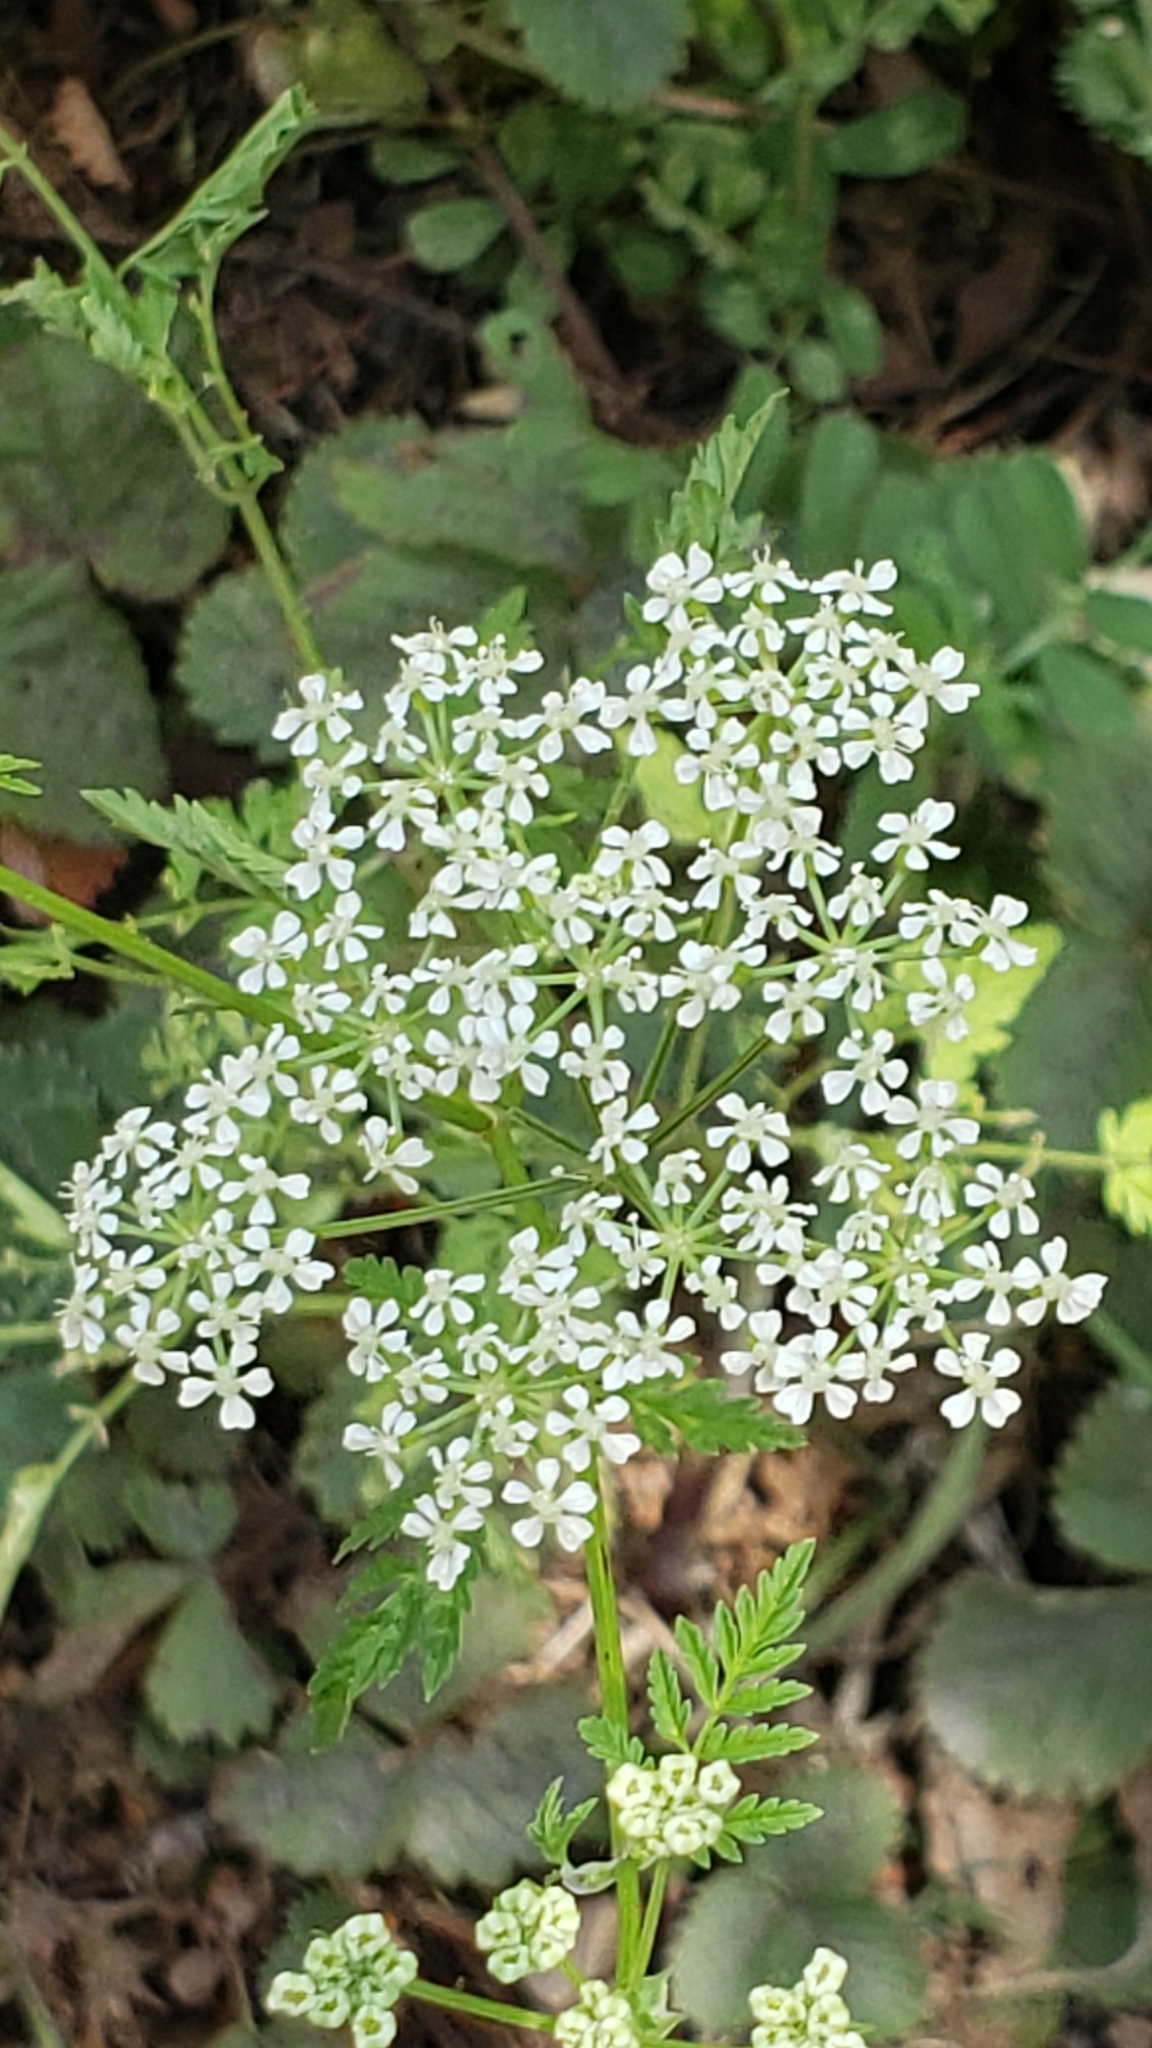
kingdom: Plantae
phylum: Tracheophyta
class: Magnoliopsida
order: Apiales
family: Apiaceae
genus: Conium
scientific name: Conium maculatum
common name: Hemlock
